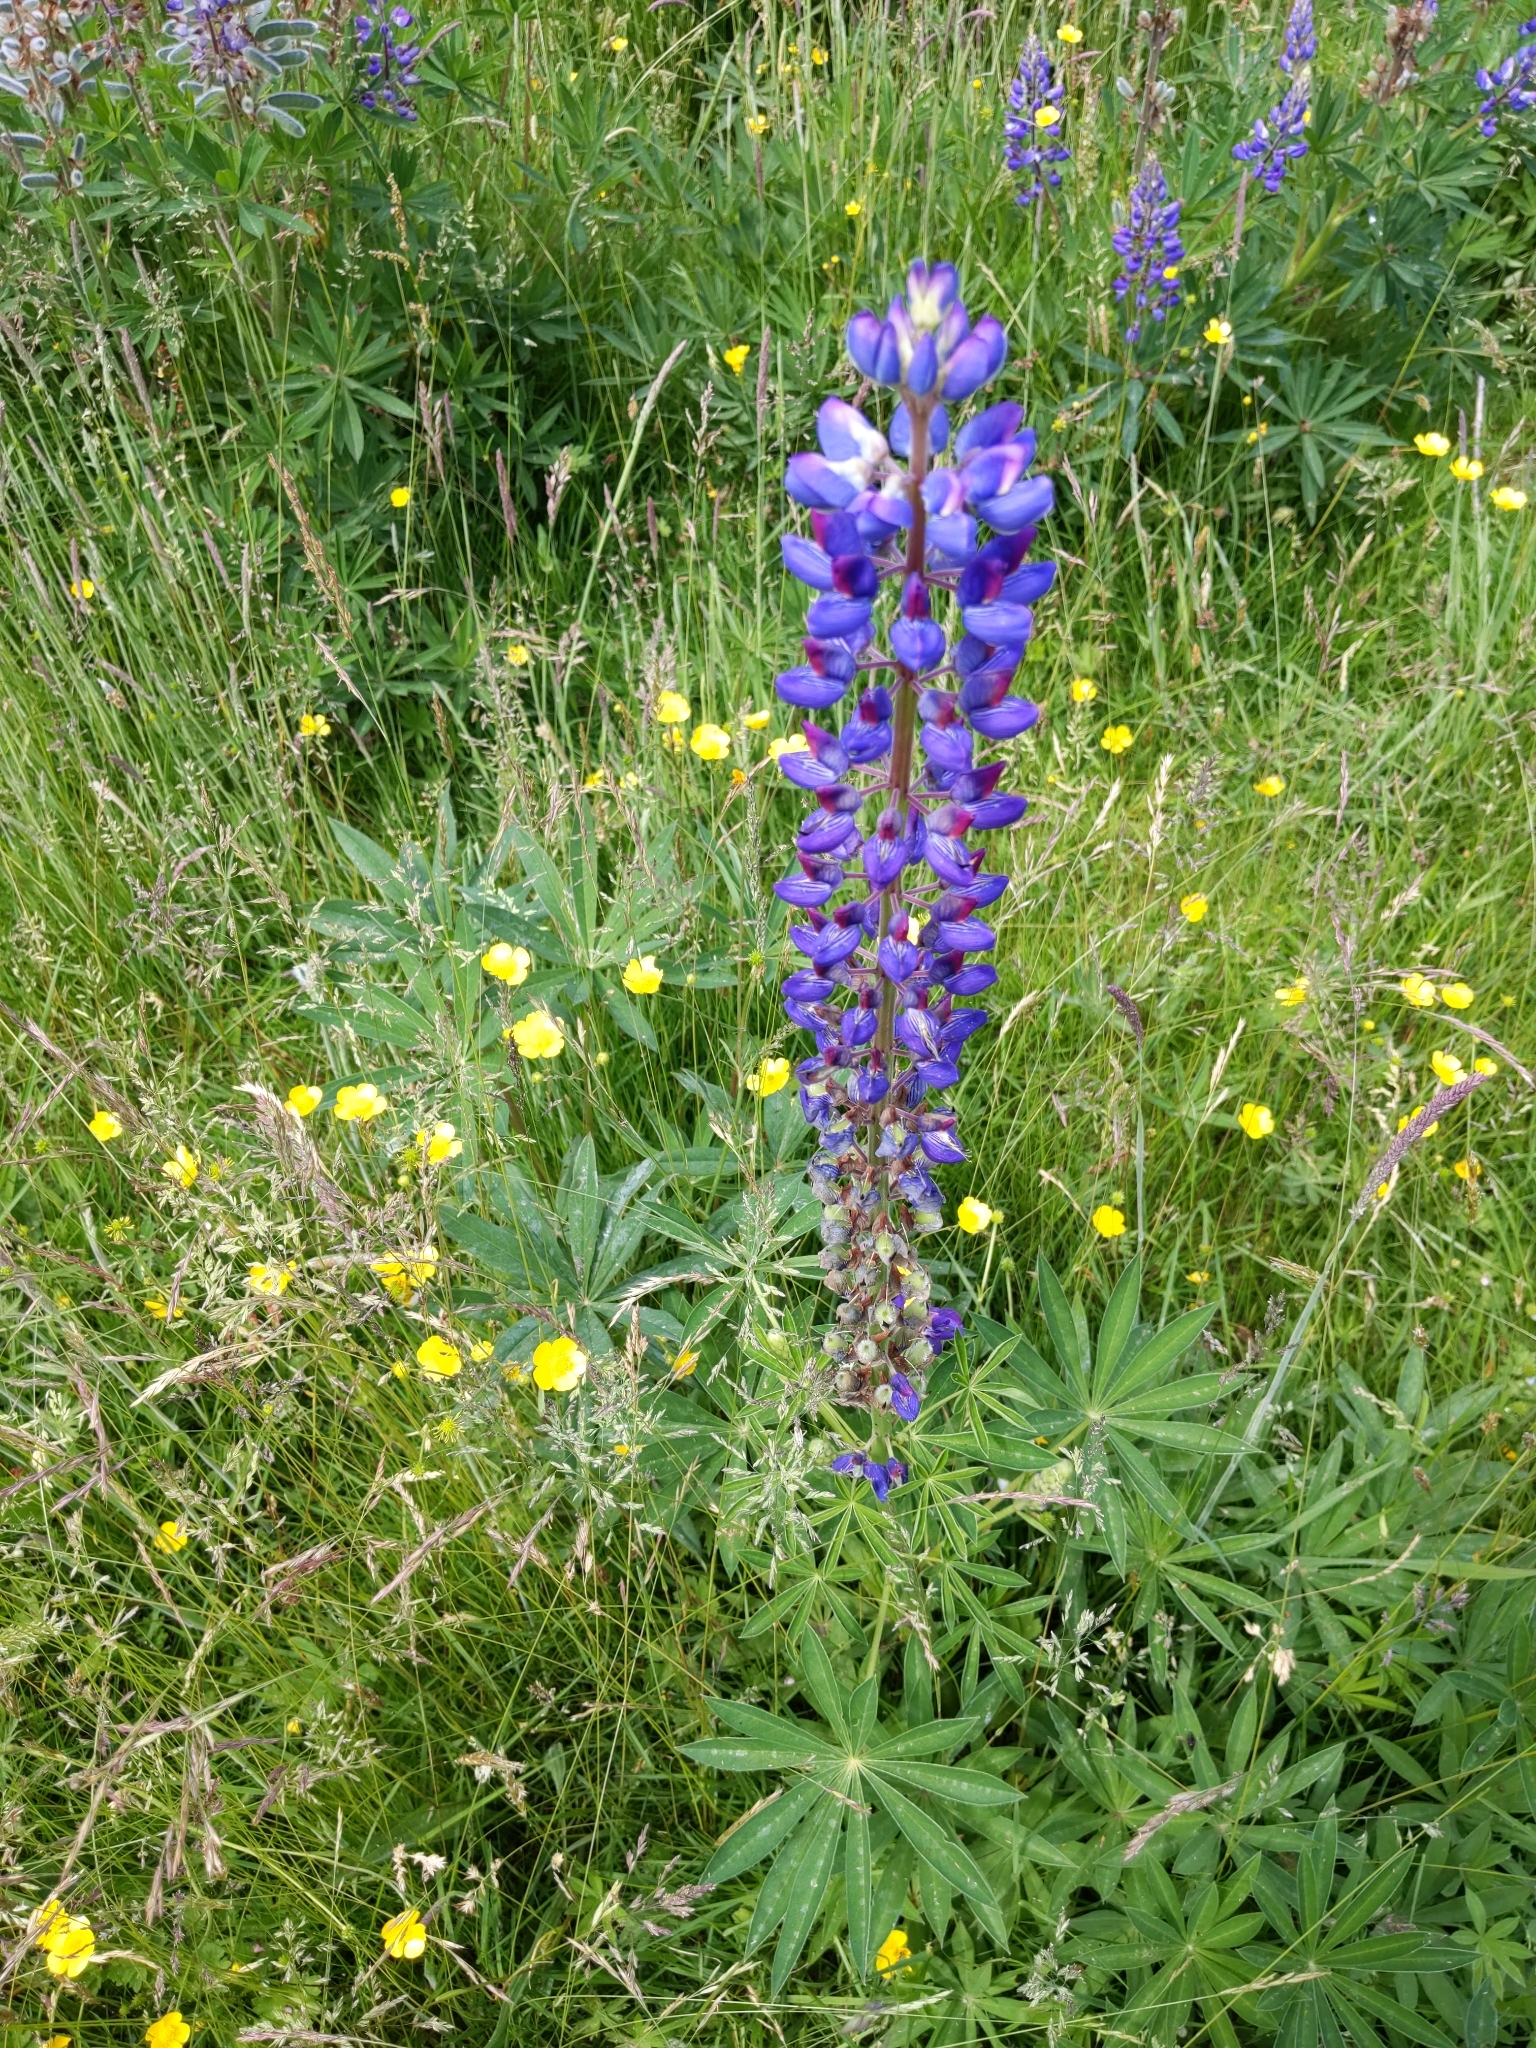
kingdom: Plantae
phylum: Tracheophyta
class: Magnoliopsida
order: Fabales
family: Fabaceae
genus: Lupinus
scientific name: Lupinus polyphyllus
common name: Garden lupin
